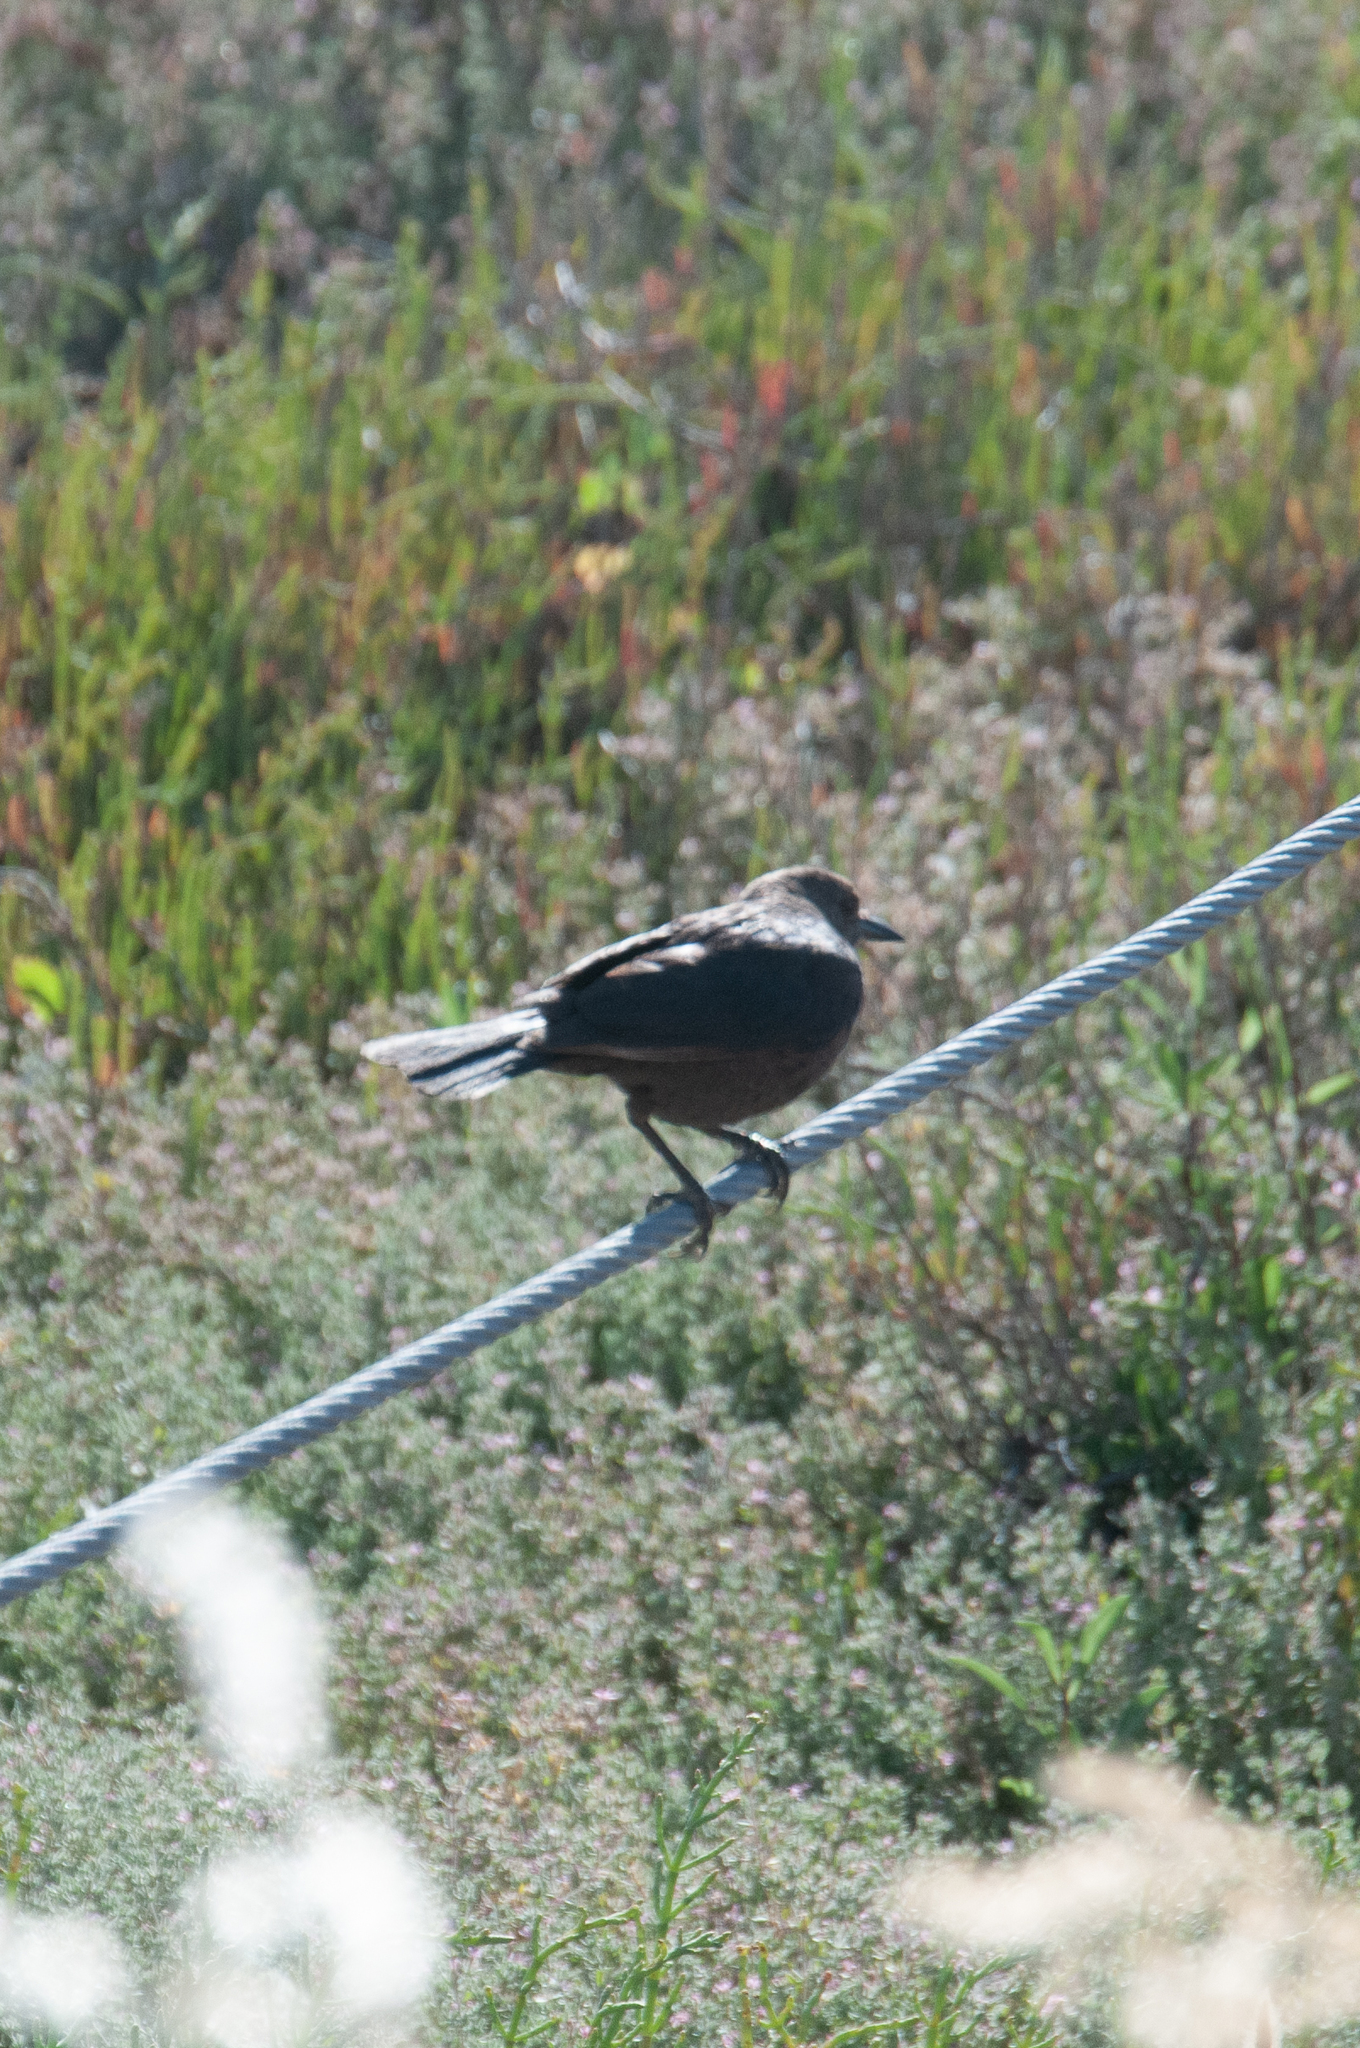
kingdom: Animalia
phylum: Chordata
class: Aves
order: Passeriformes
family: Icteridae
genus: Euphagus
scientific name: Euphagus cyanocephalus
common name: Brewer's blackbird
